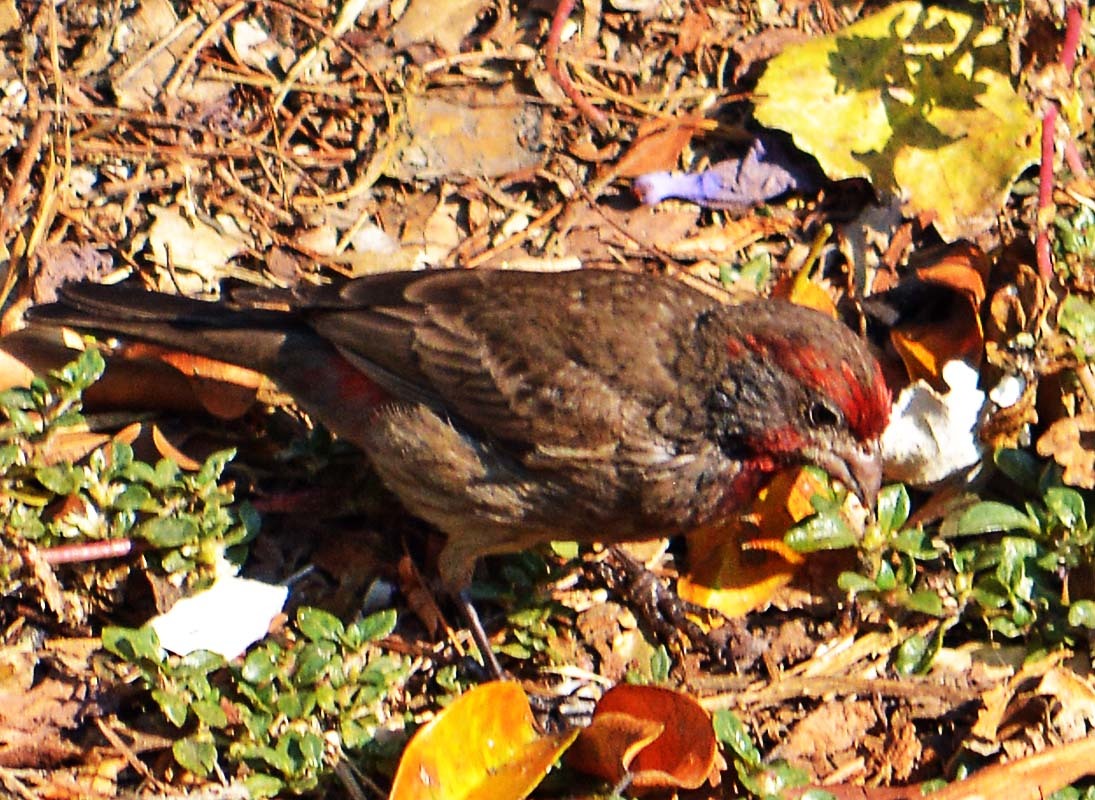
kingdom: Animalia
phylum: Chordata
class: Aves
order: Passeriformes
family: Fringillidae
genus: Haemorhous
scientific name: Haemorhous mexicanus
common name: House finch
